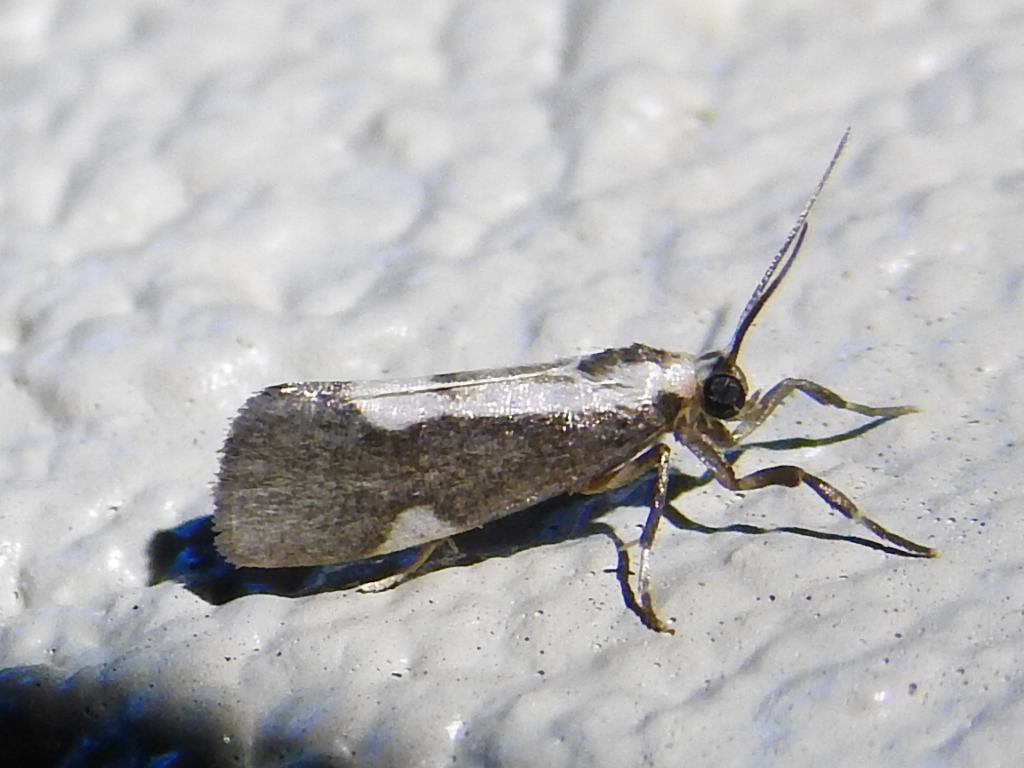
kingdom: Animalia
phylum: Arthropoda
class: Insecta
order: Lepidoptera
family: Erebidae
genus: Cisthene
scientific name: Cisthene conjuncta
